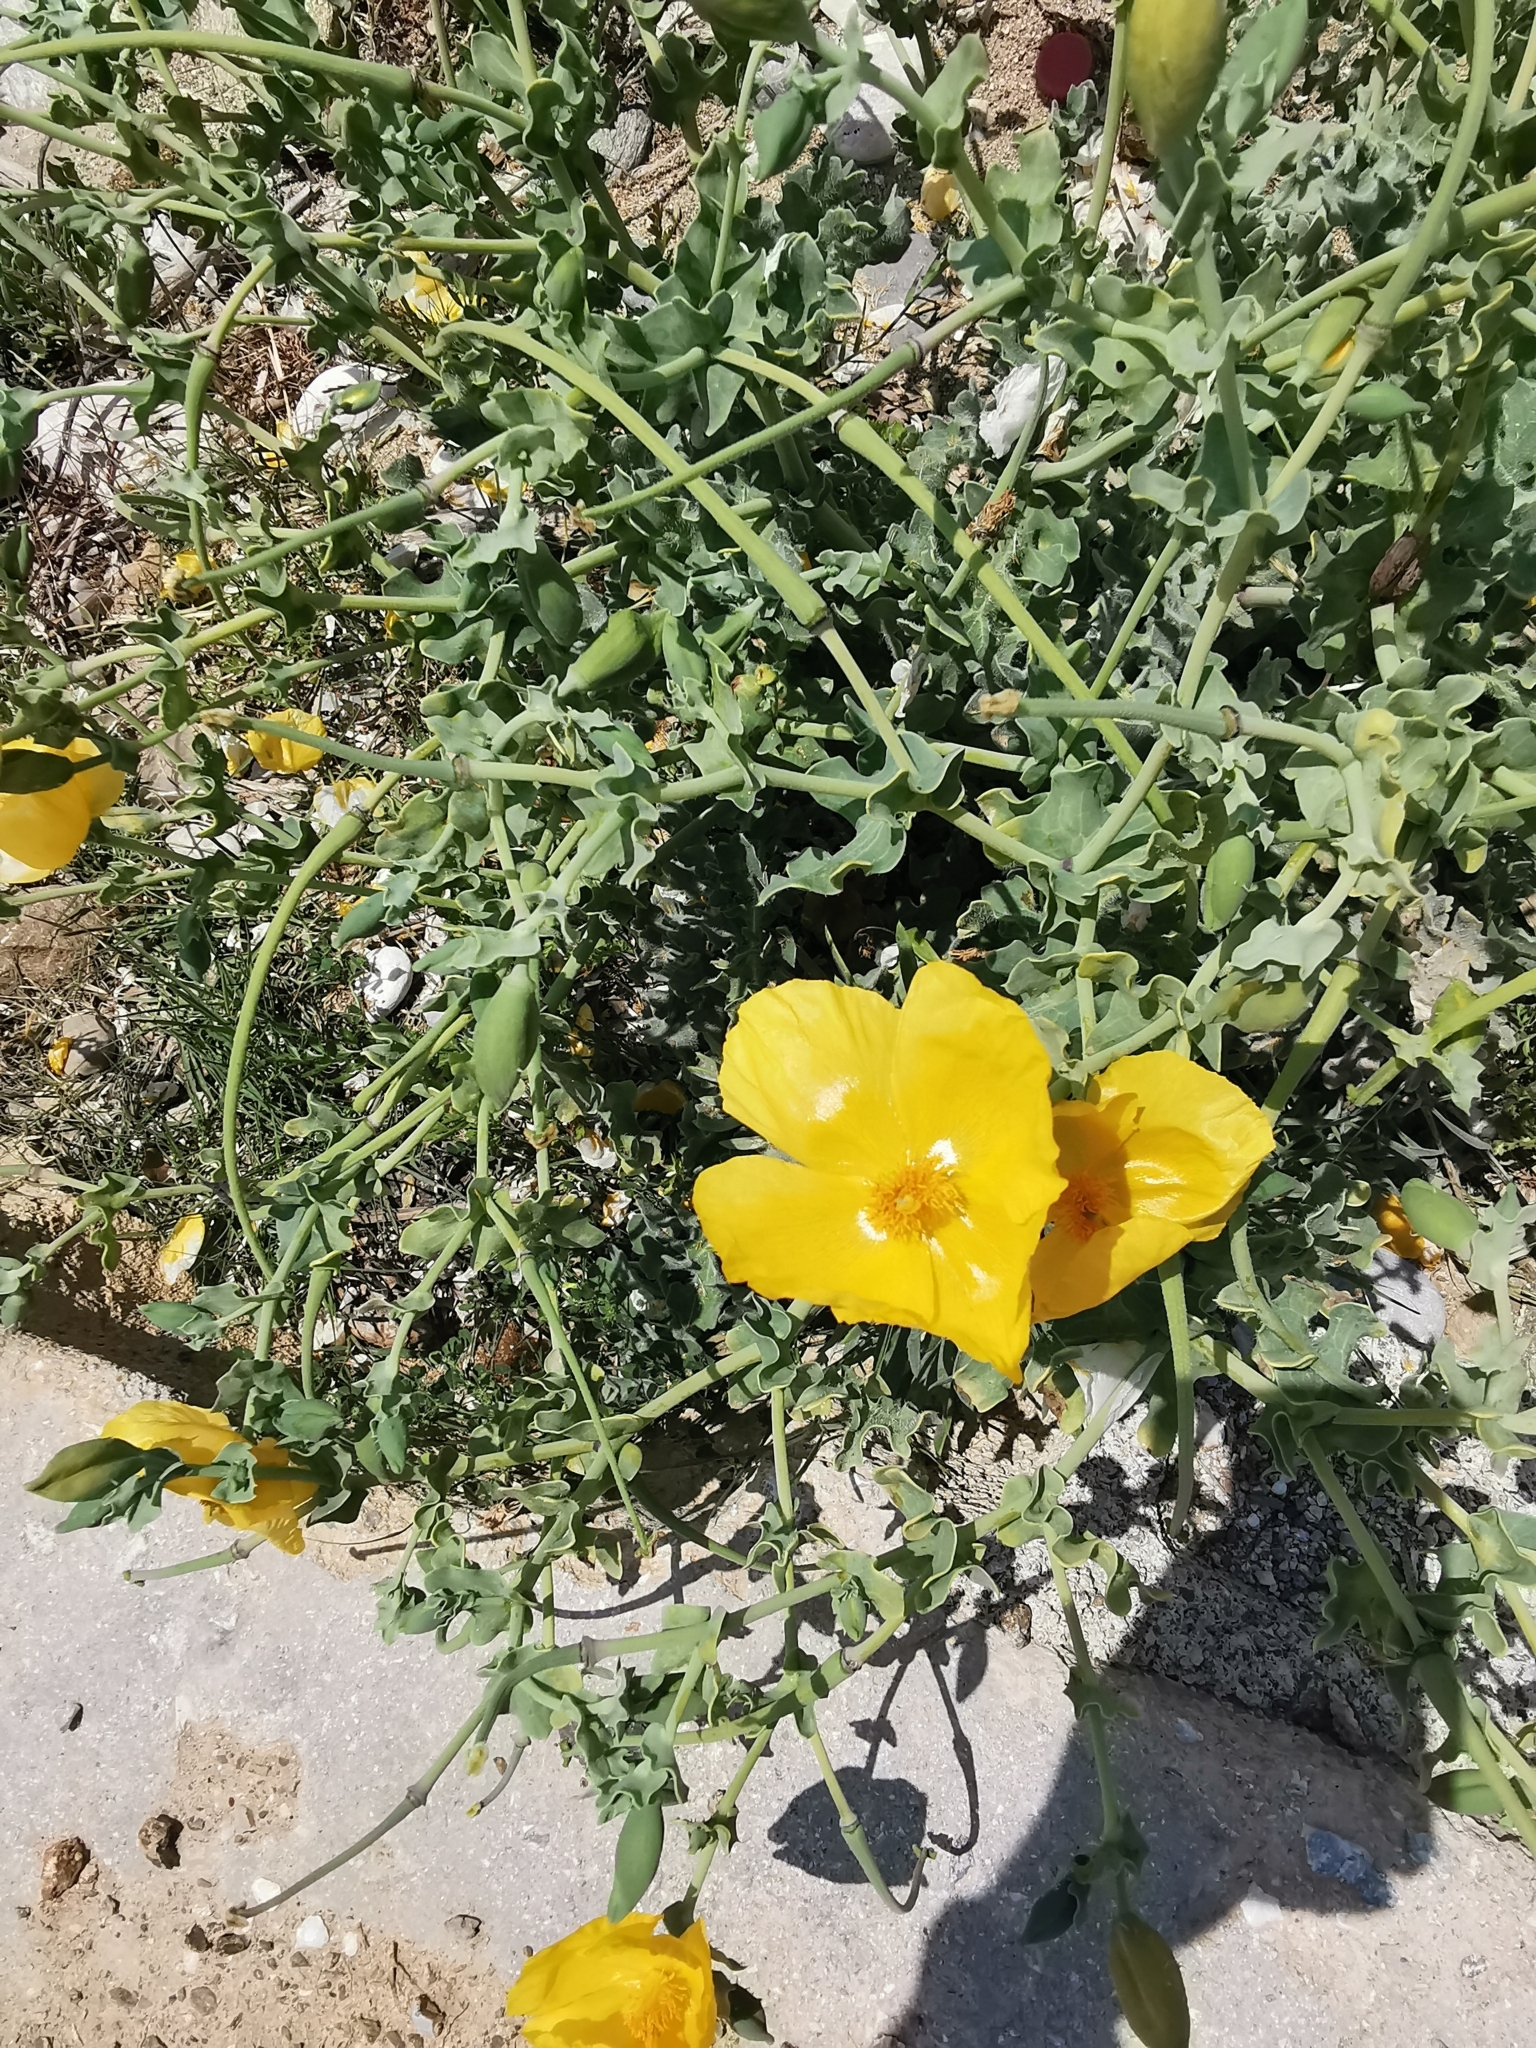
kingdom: Plantae
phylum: Tracheophyta
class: Magnoliopsida
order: Ranunculales
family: Papaveraceae
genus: Glaucium
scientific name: Glaucium flavum
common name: Yellow horned-poppy
